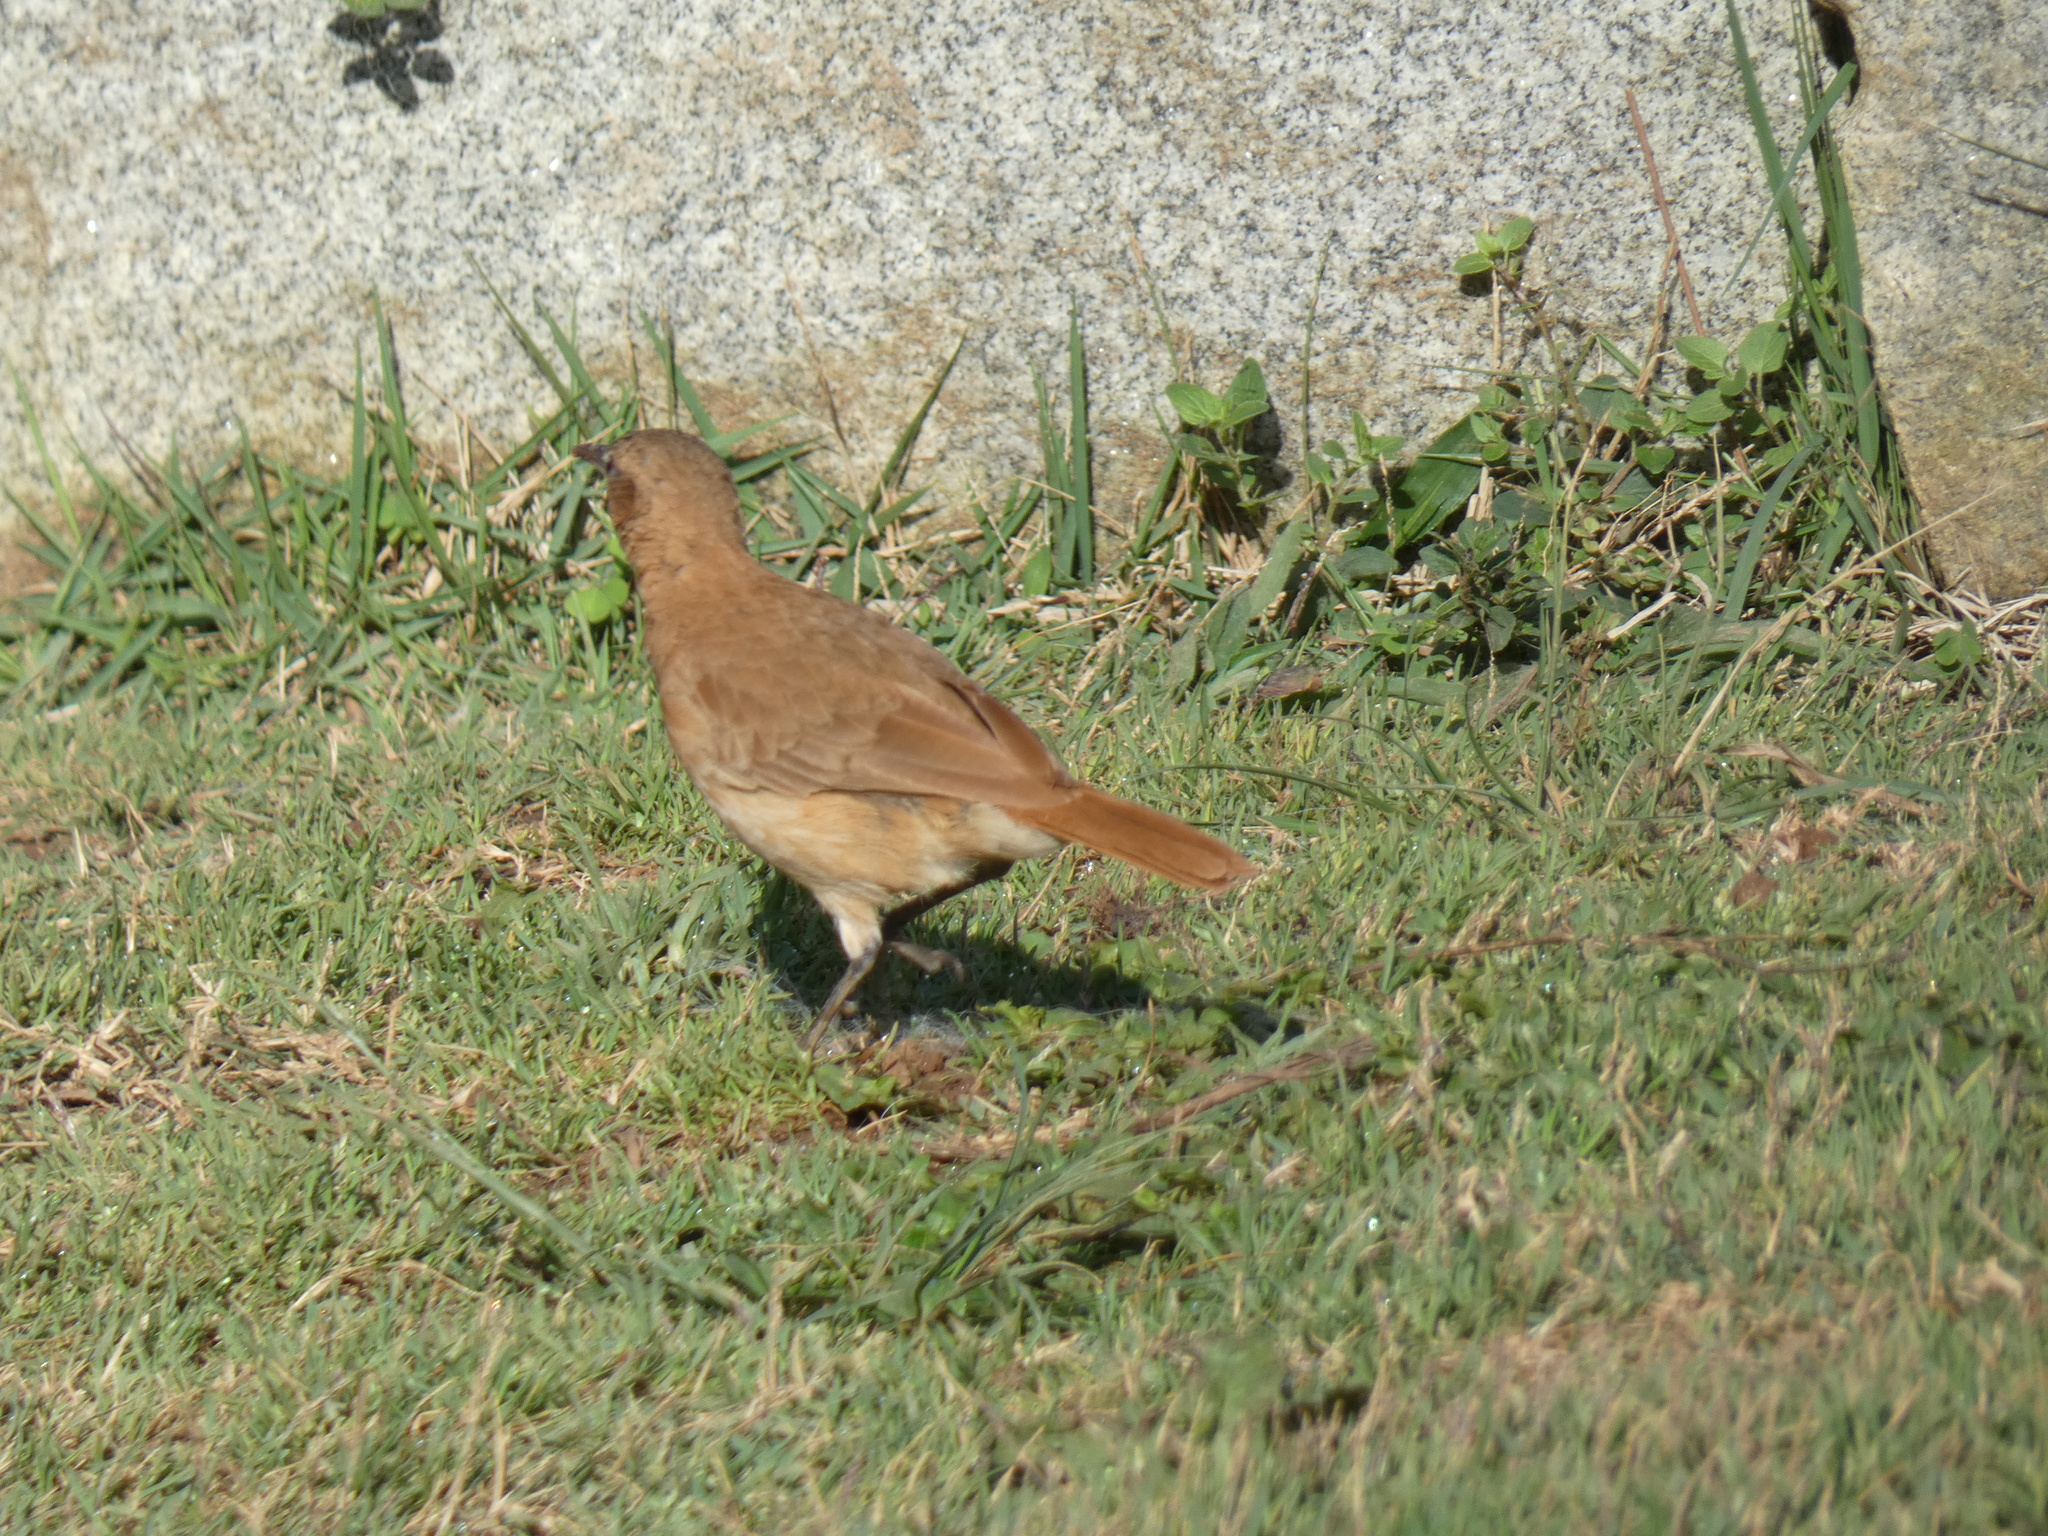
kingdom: Animalia
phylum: Chordata
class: Aves
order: Passeriformes
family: Furnariidae
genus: Furnarius
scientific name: Furnarius rufus
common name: Rufous hornero
